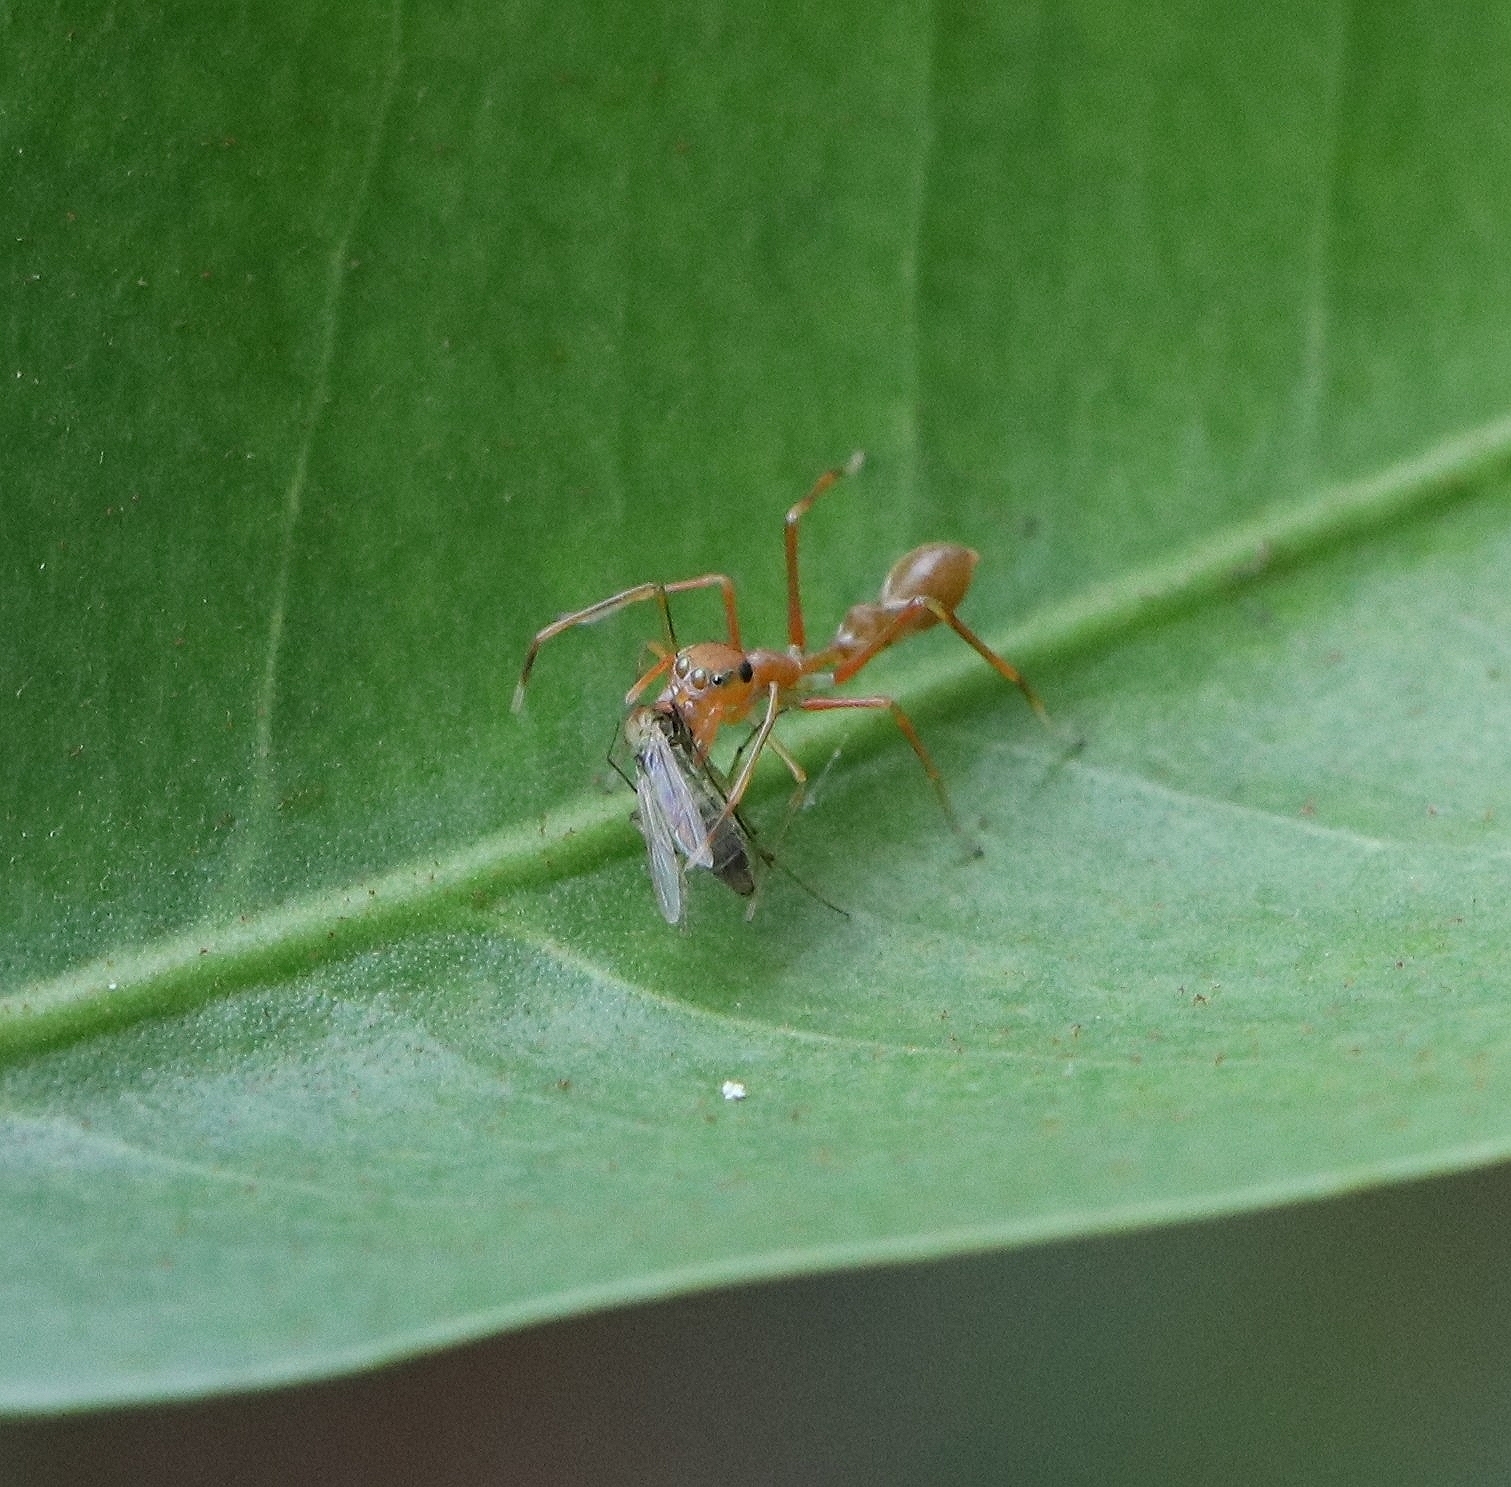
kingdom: Animalia
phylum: Arthropoda
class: Arachnida
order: Araneae
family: Salticidae
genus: Myrmaplata
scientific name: Myrmaplata plataleoides
